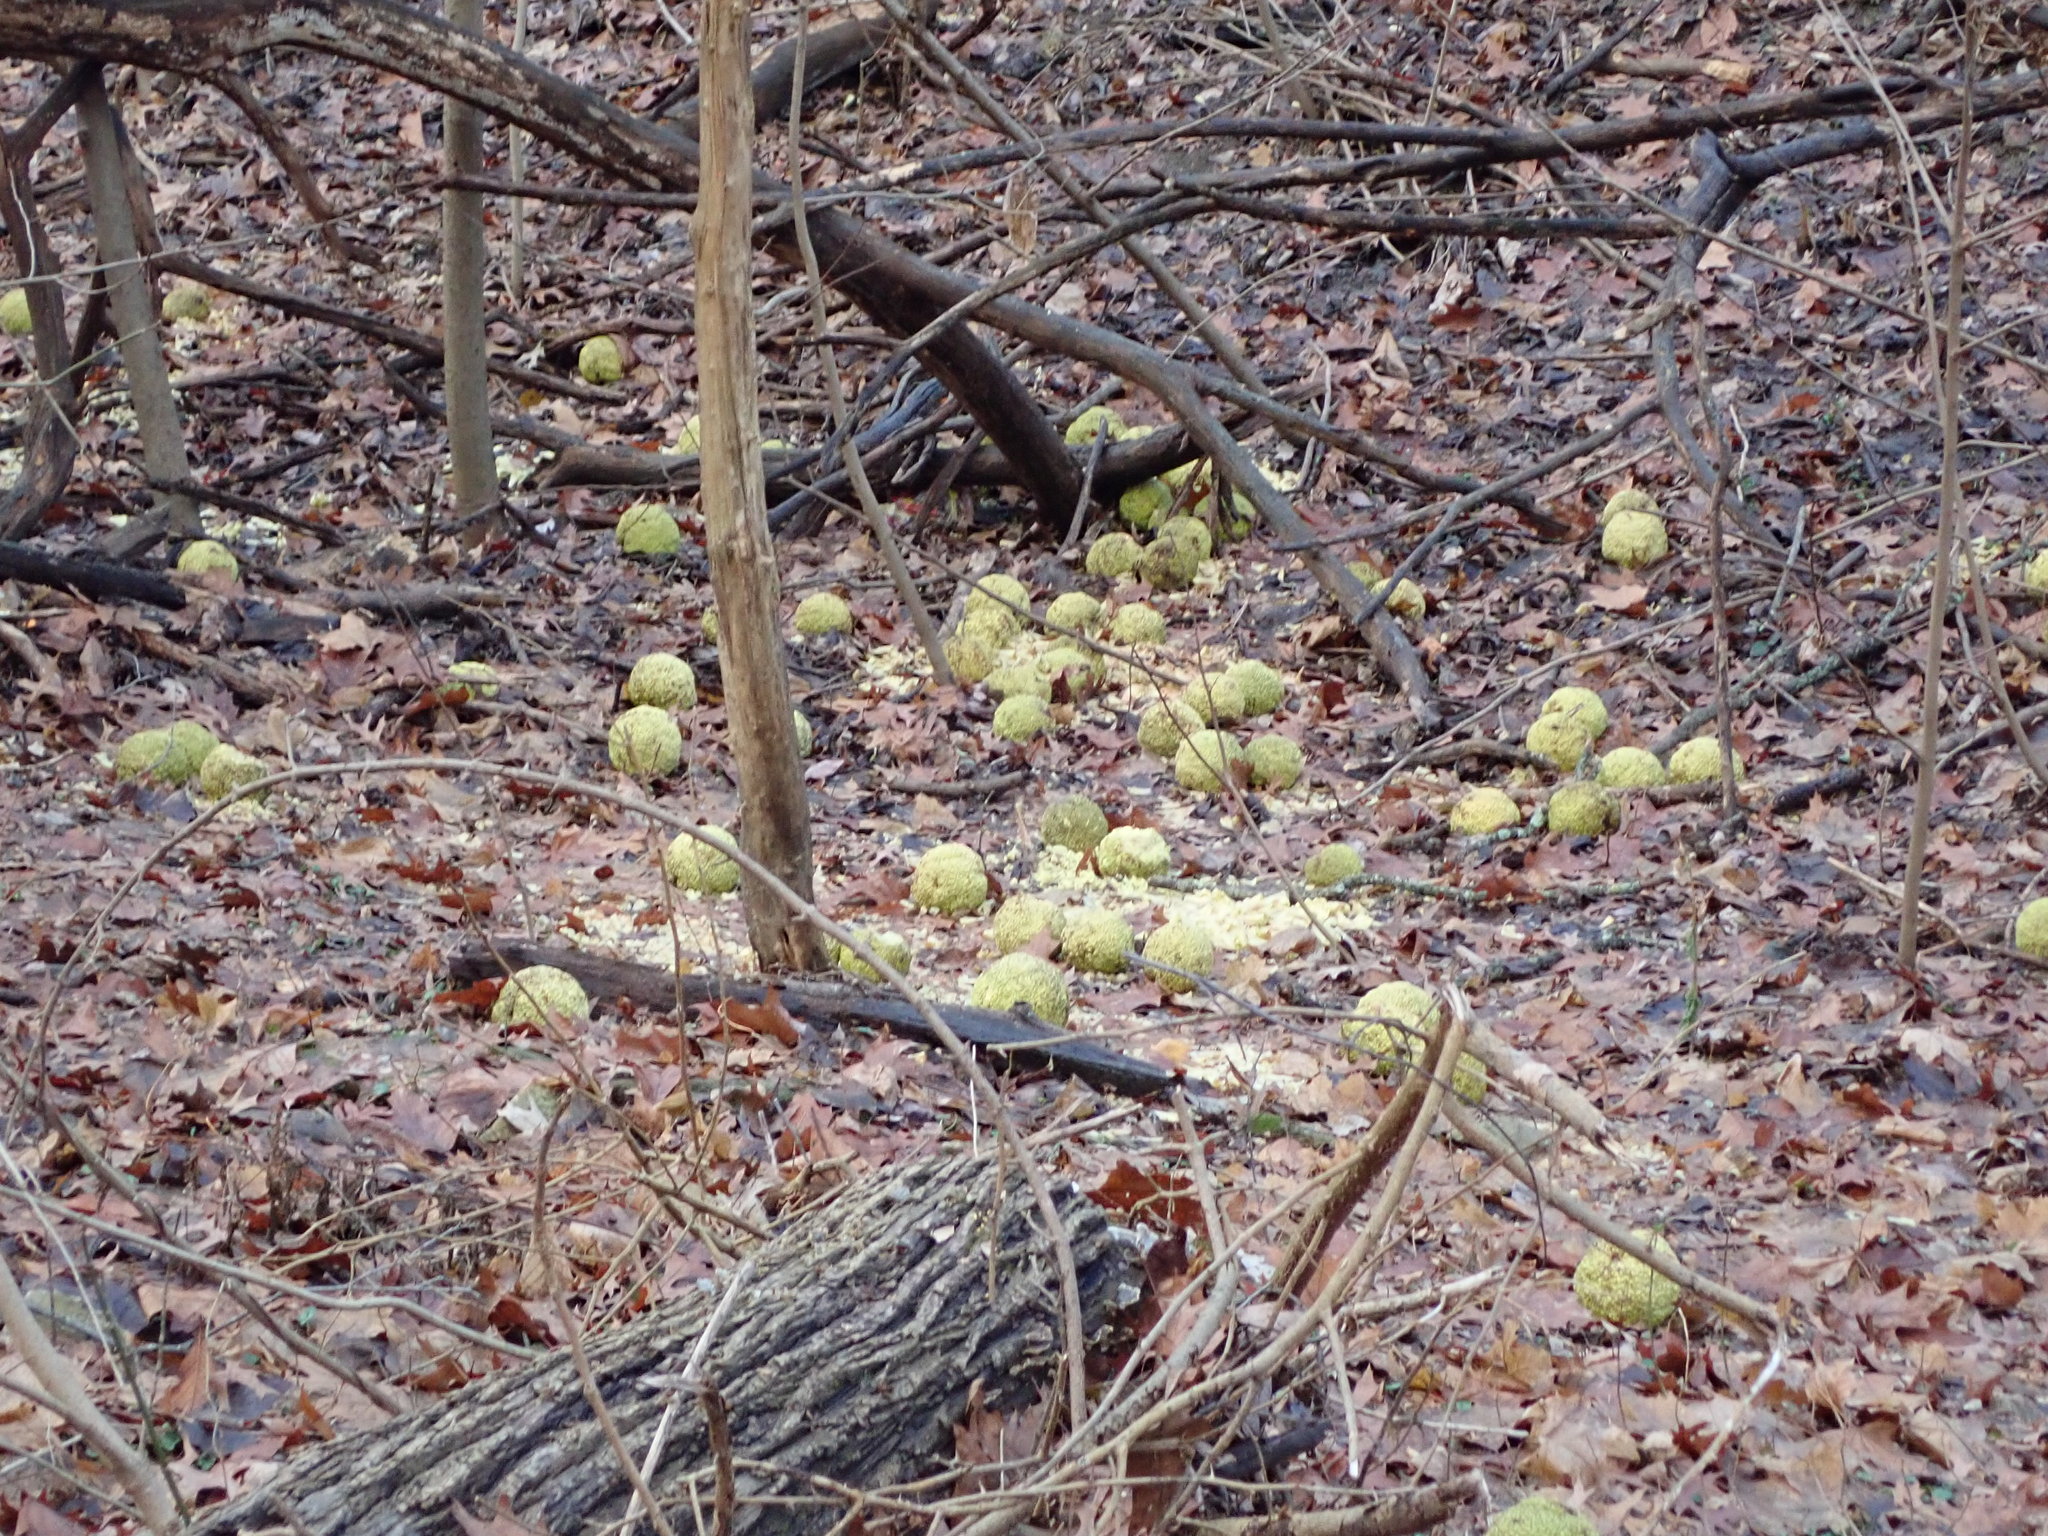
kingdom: Plantae
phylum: Tracheophyta
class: Magnoliopsida
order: Rosales
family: Moraceae
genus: Maclura
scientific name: Maclura pomifera
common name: Osage-orange
